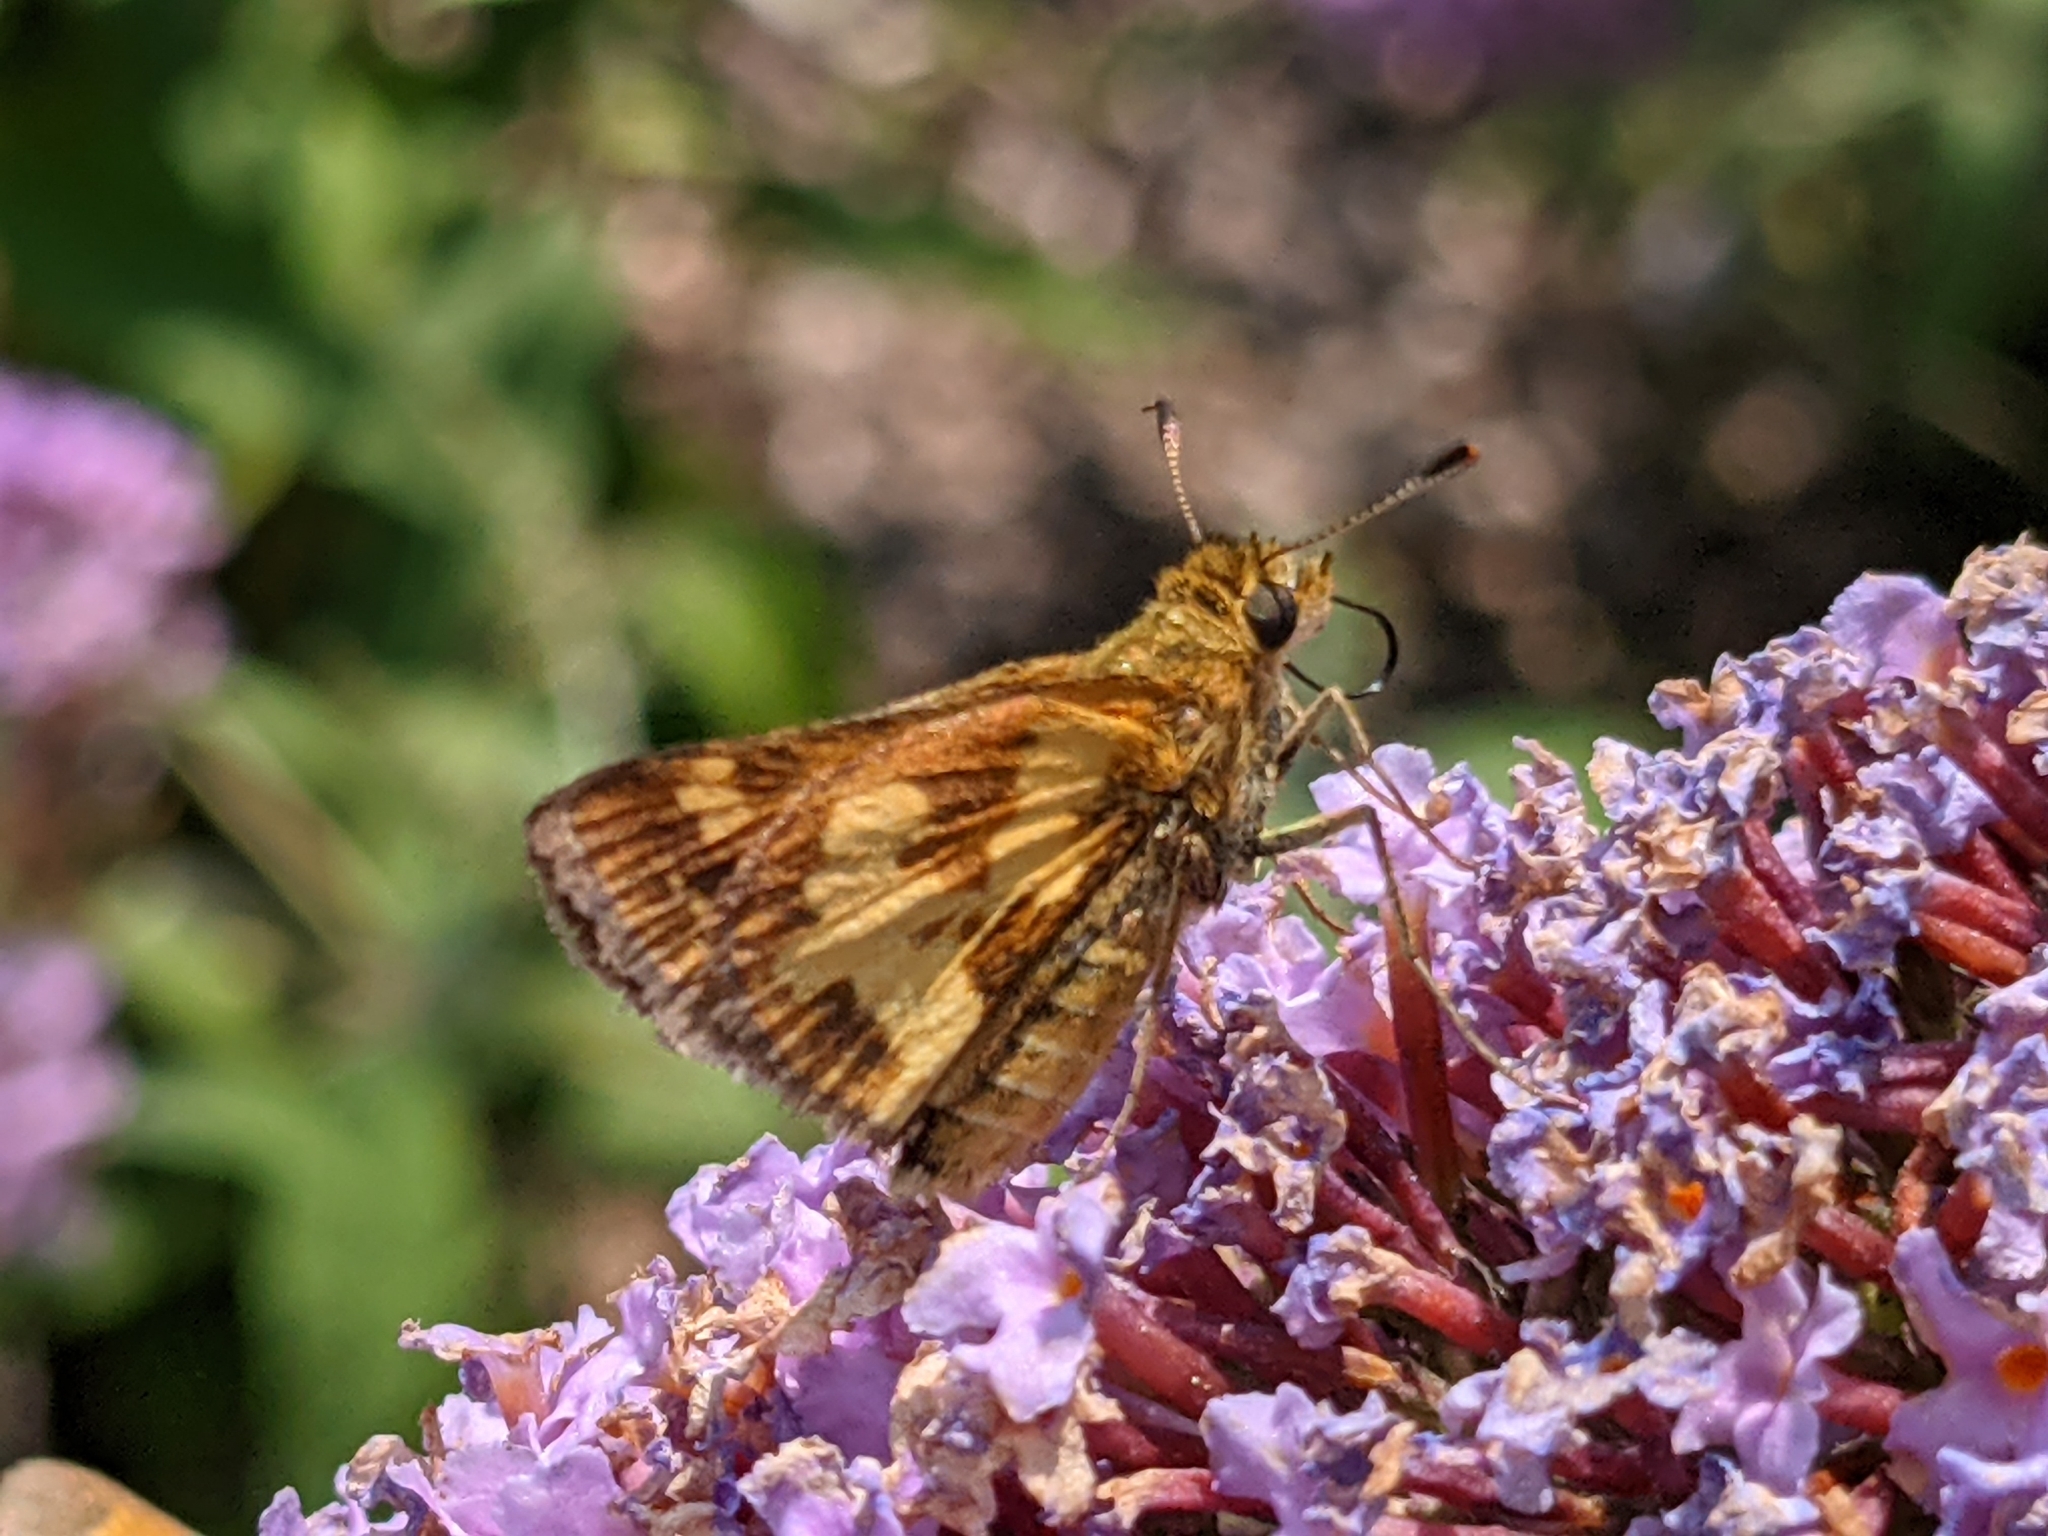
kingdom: Animalia
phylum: Arthropoda
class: Insecta
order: Lepidoptera
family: Hesperiidae
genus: Polites
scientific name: Polites coras
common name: Peck's skipper
